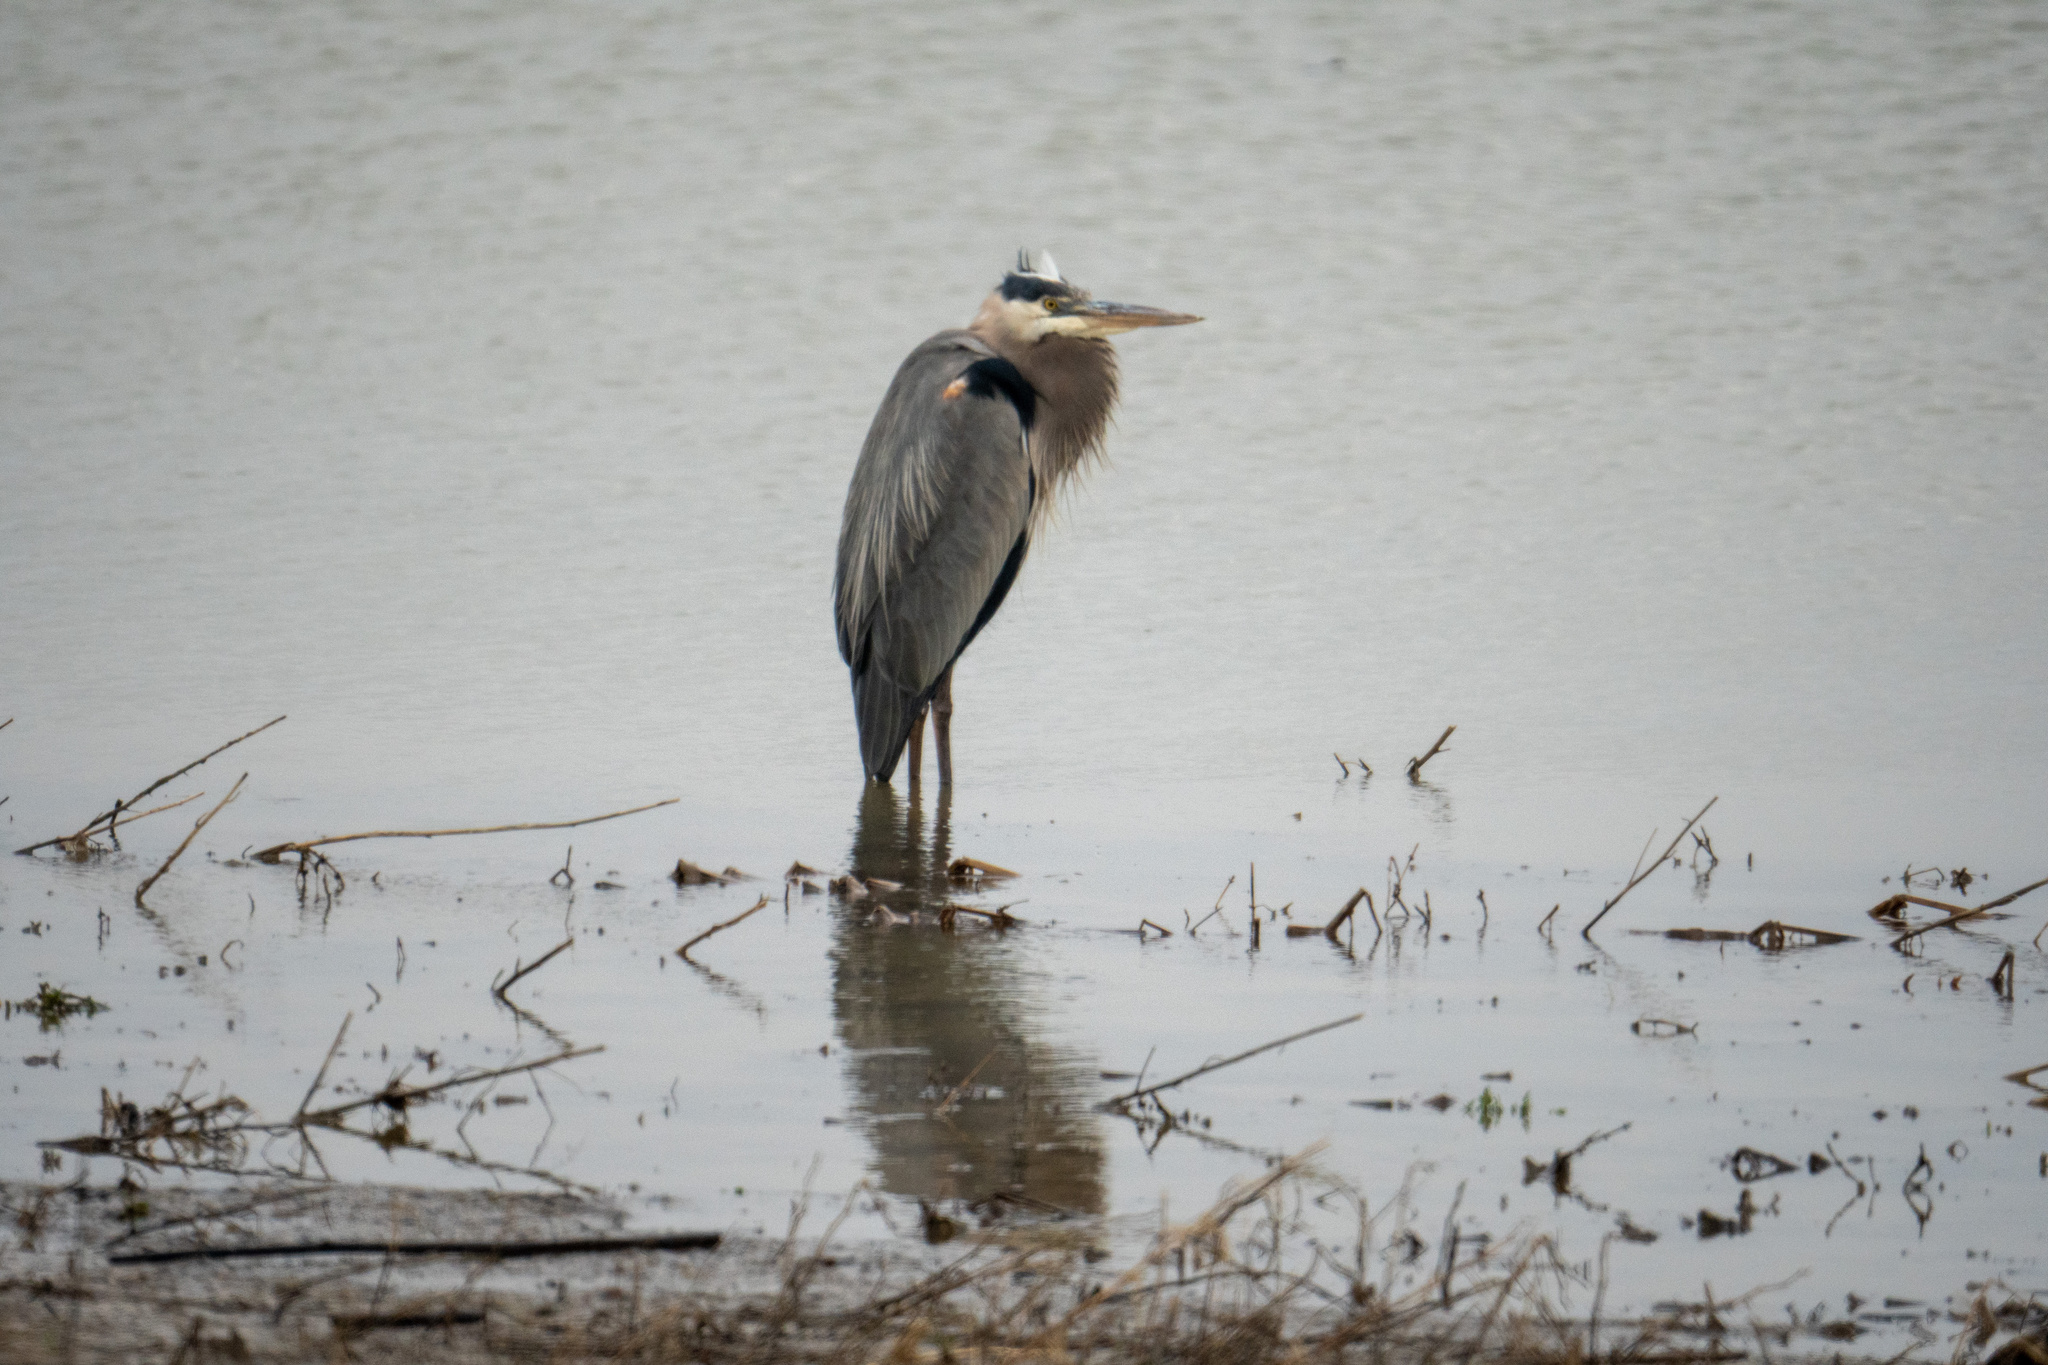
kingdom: Animalia
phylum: Chordata
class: Aves
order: Pelecaniformes
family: Ardeidae
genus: Ardea
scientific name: Ardea herodias
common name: Great blue heron
